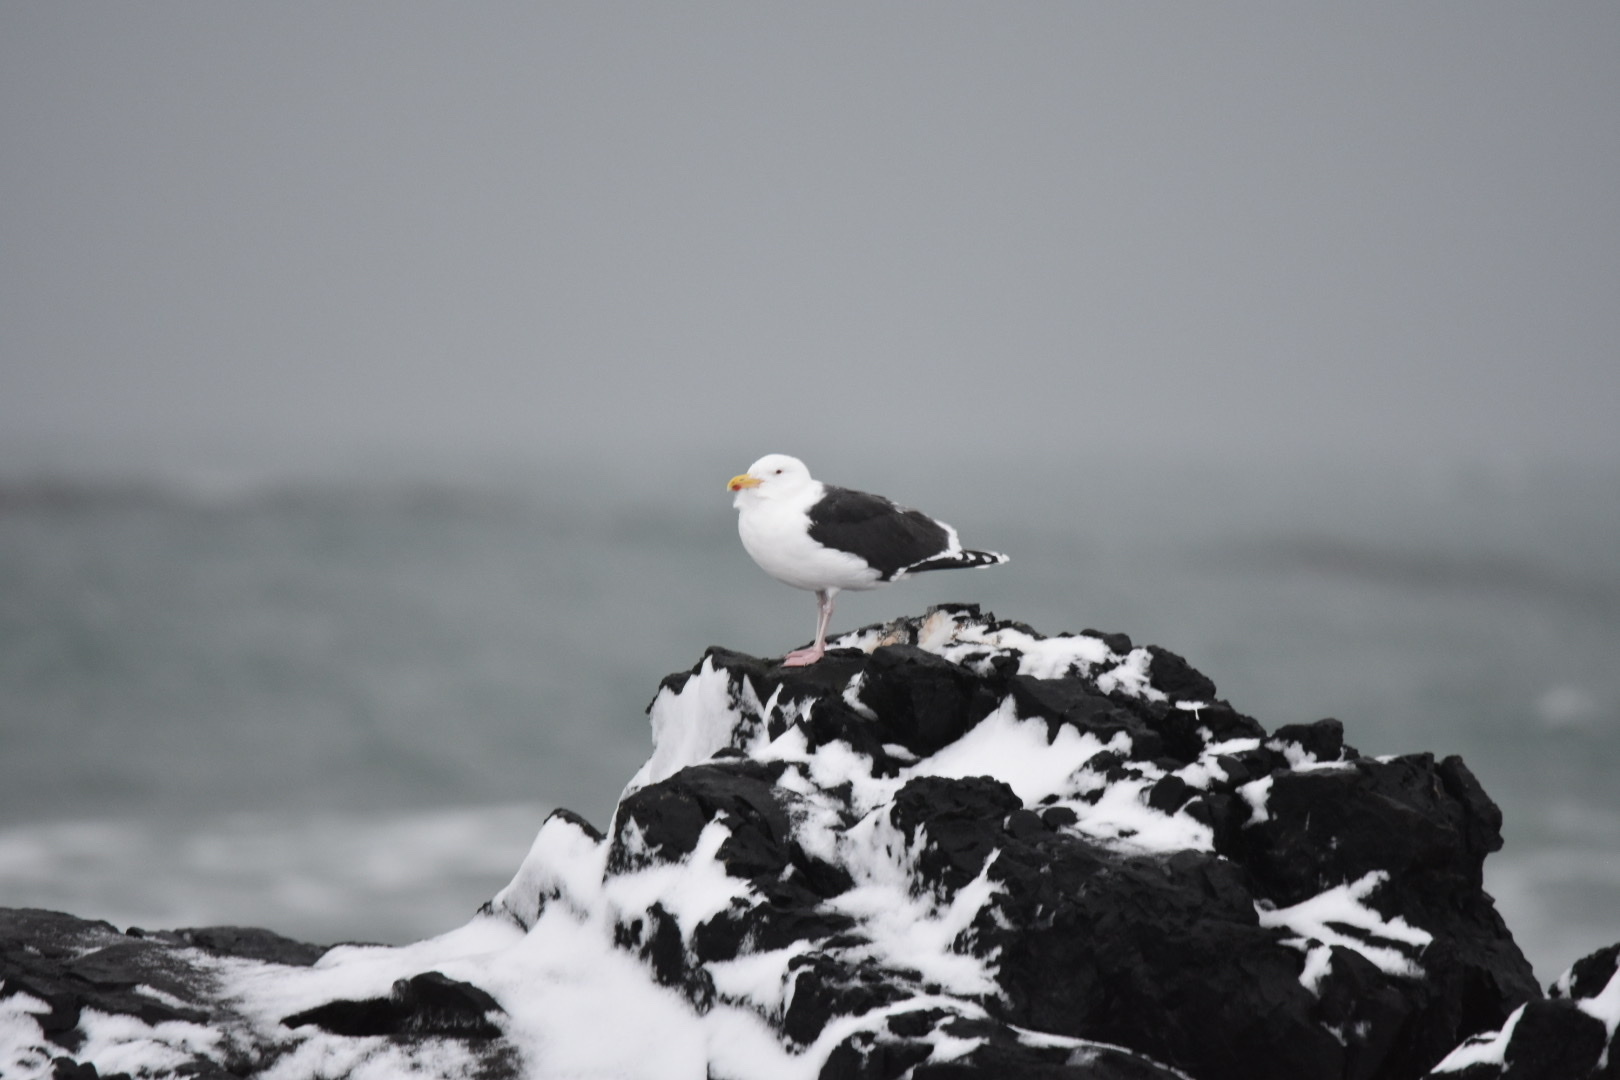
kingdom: Animalia
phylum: Chordata
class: Aves
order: Charadriiformes
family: Laridae
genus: Larus
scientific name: Larus marinus
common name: Great black-backed gull
